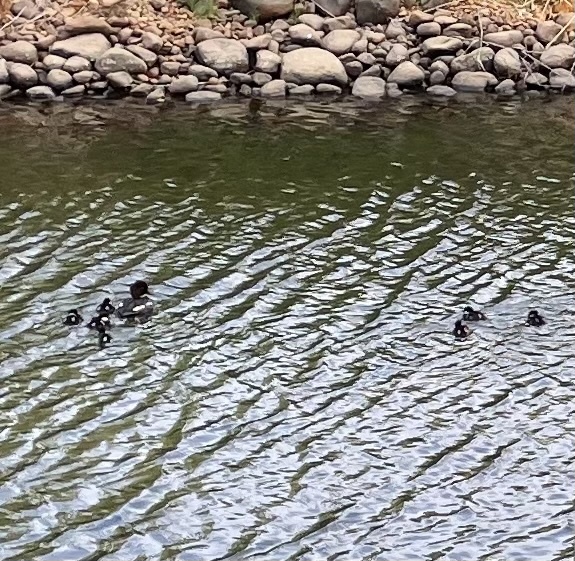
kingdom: Animalia
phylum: Chordata
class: Aves
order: Anseriformes
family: Anatidae
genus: Bucephala
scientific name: Bucephala clangula
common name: Common goldeneye
